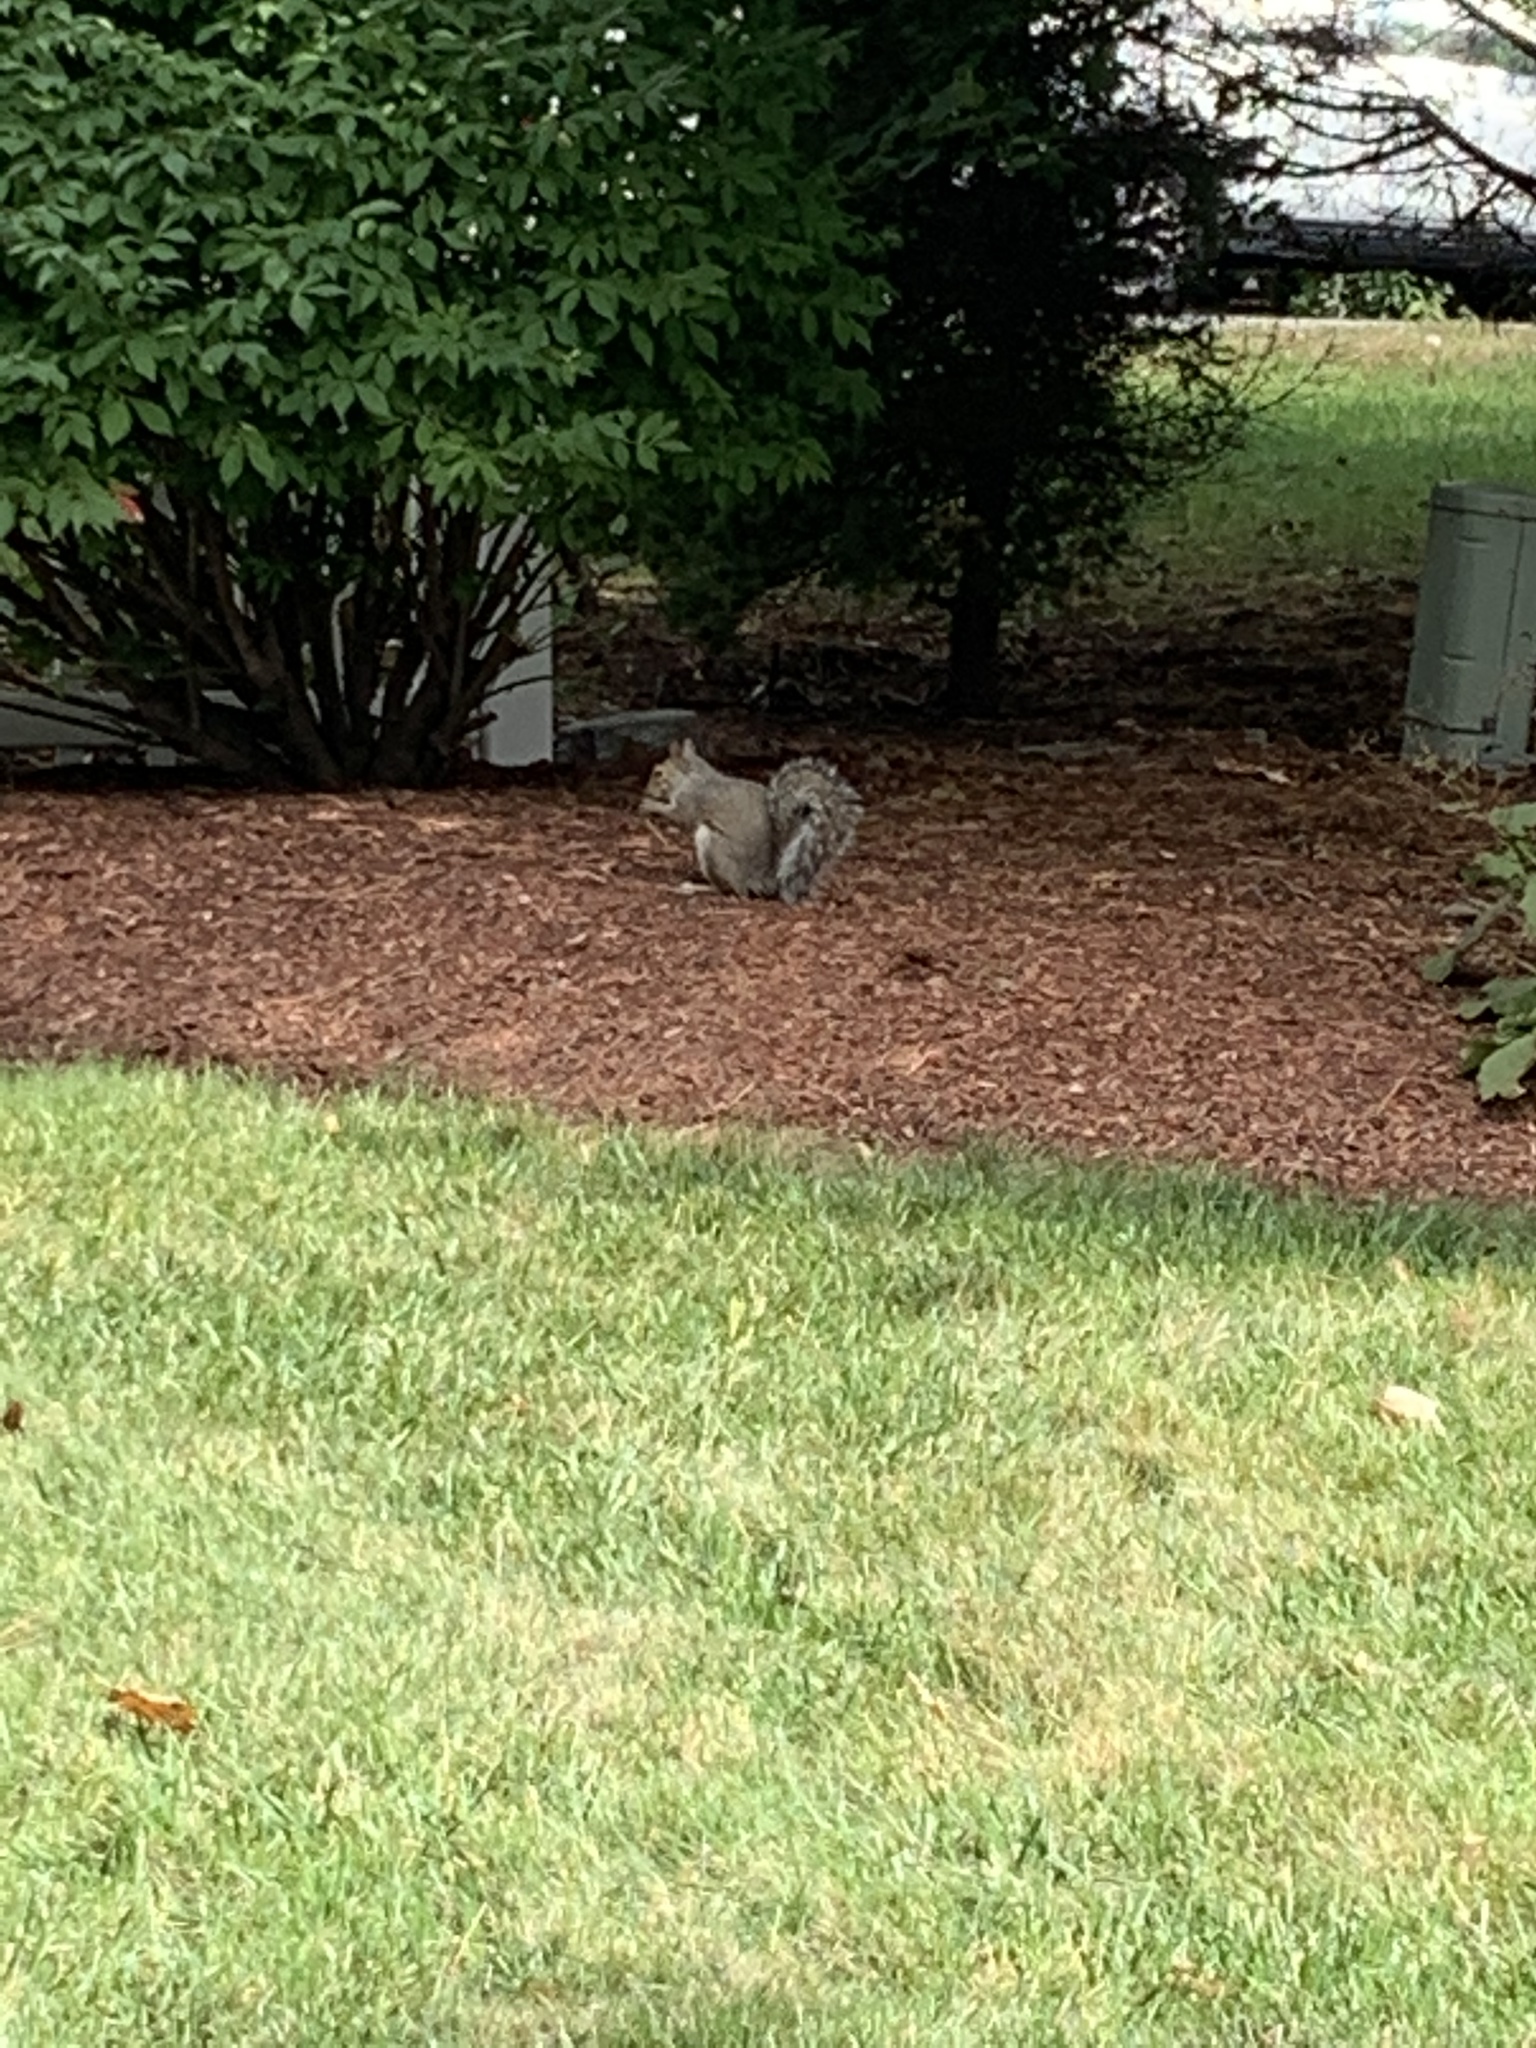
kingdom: Animalia
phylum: Chordata
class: Mammalia
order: Rodentia
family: Sciuridae
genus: Sciurus
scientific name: Sciurus carolinensis
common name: Eastern gray squirrel
